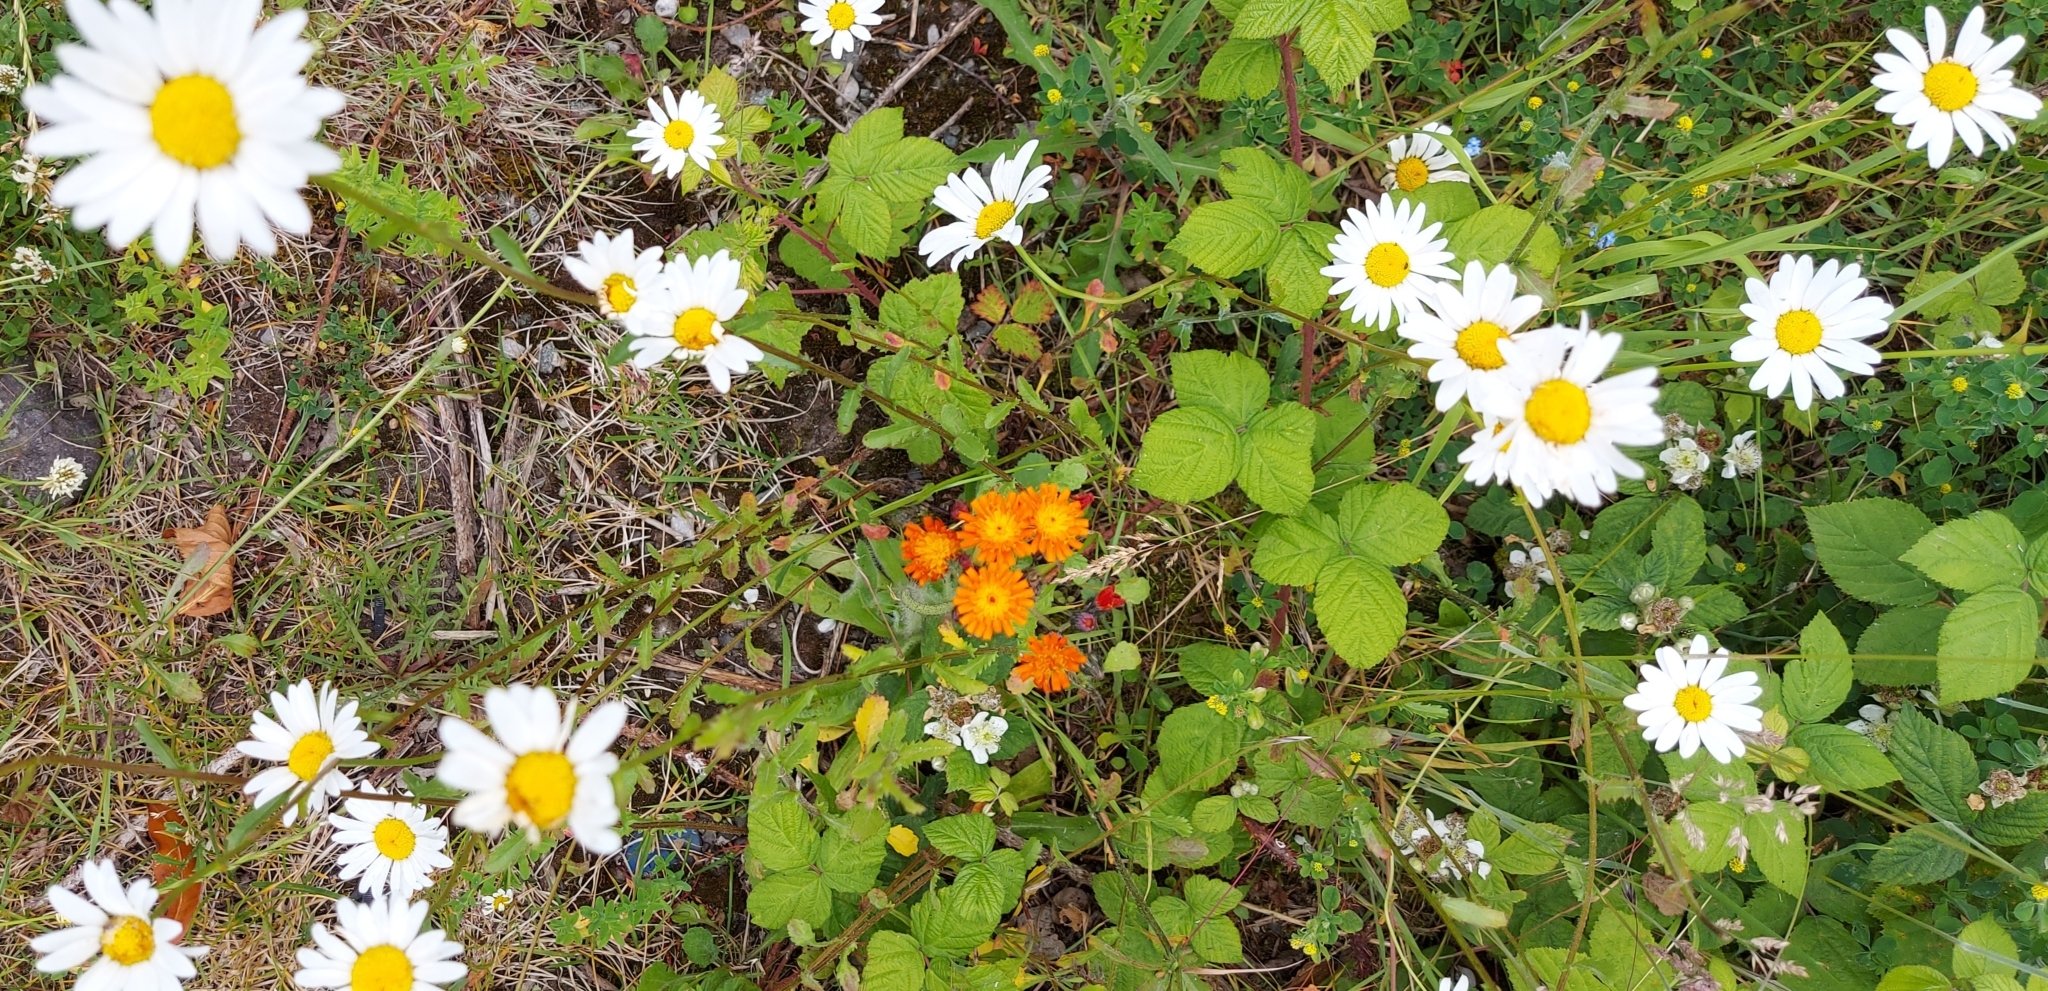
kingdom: Plantae
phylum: Tracheophyta
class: Magnoliopsida
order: Asterales
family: Asteraceae
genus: Leucanthemum
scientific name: Leucanthemum vulgare
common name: Oxeye daisy
